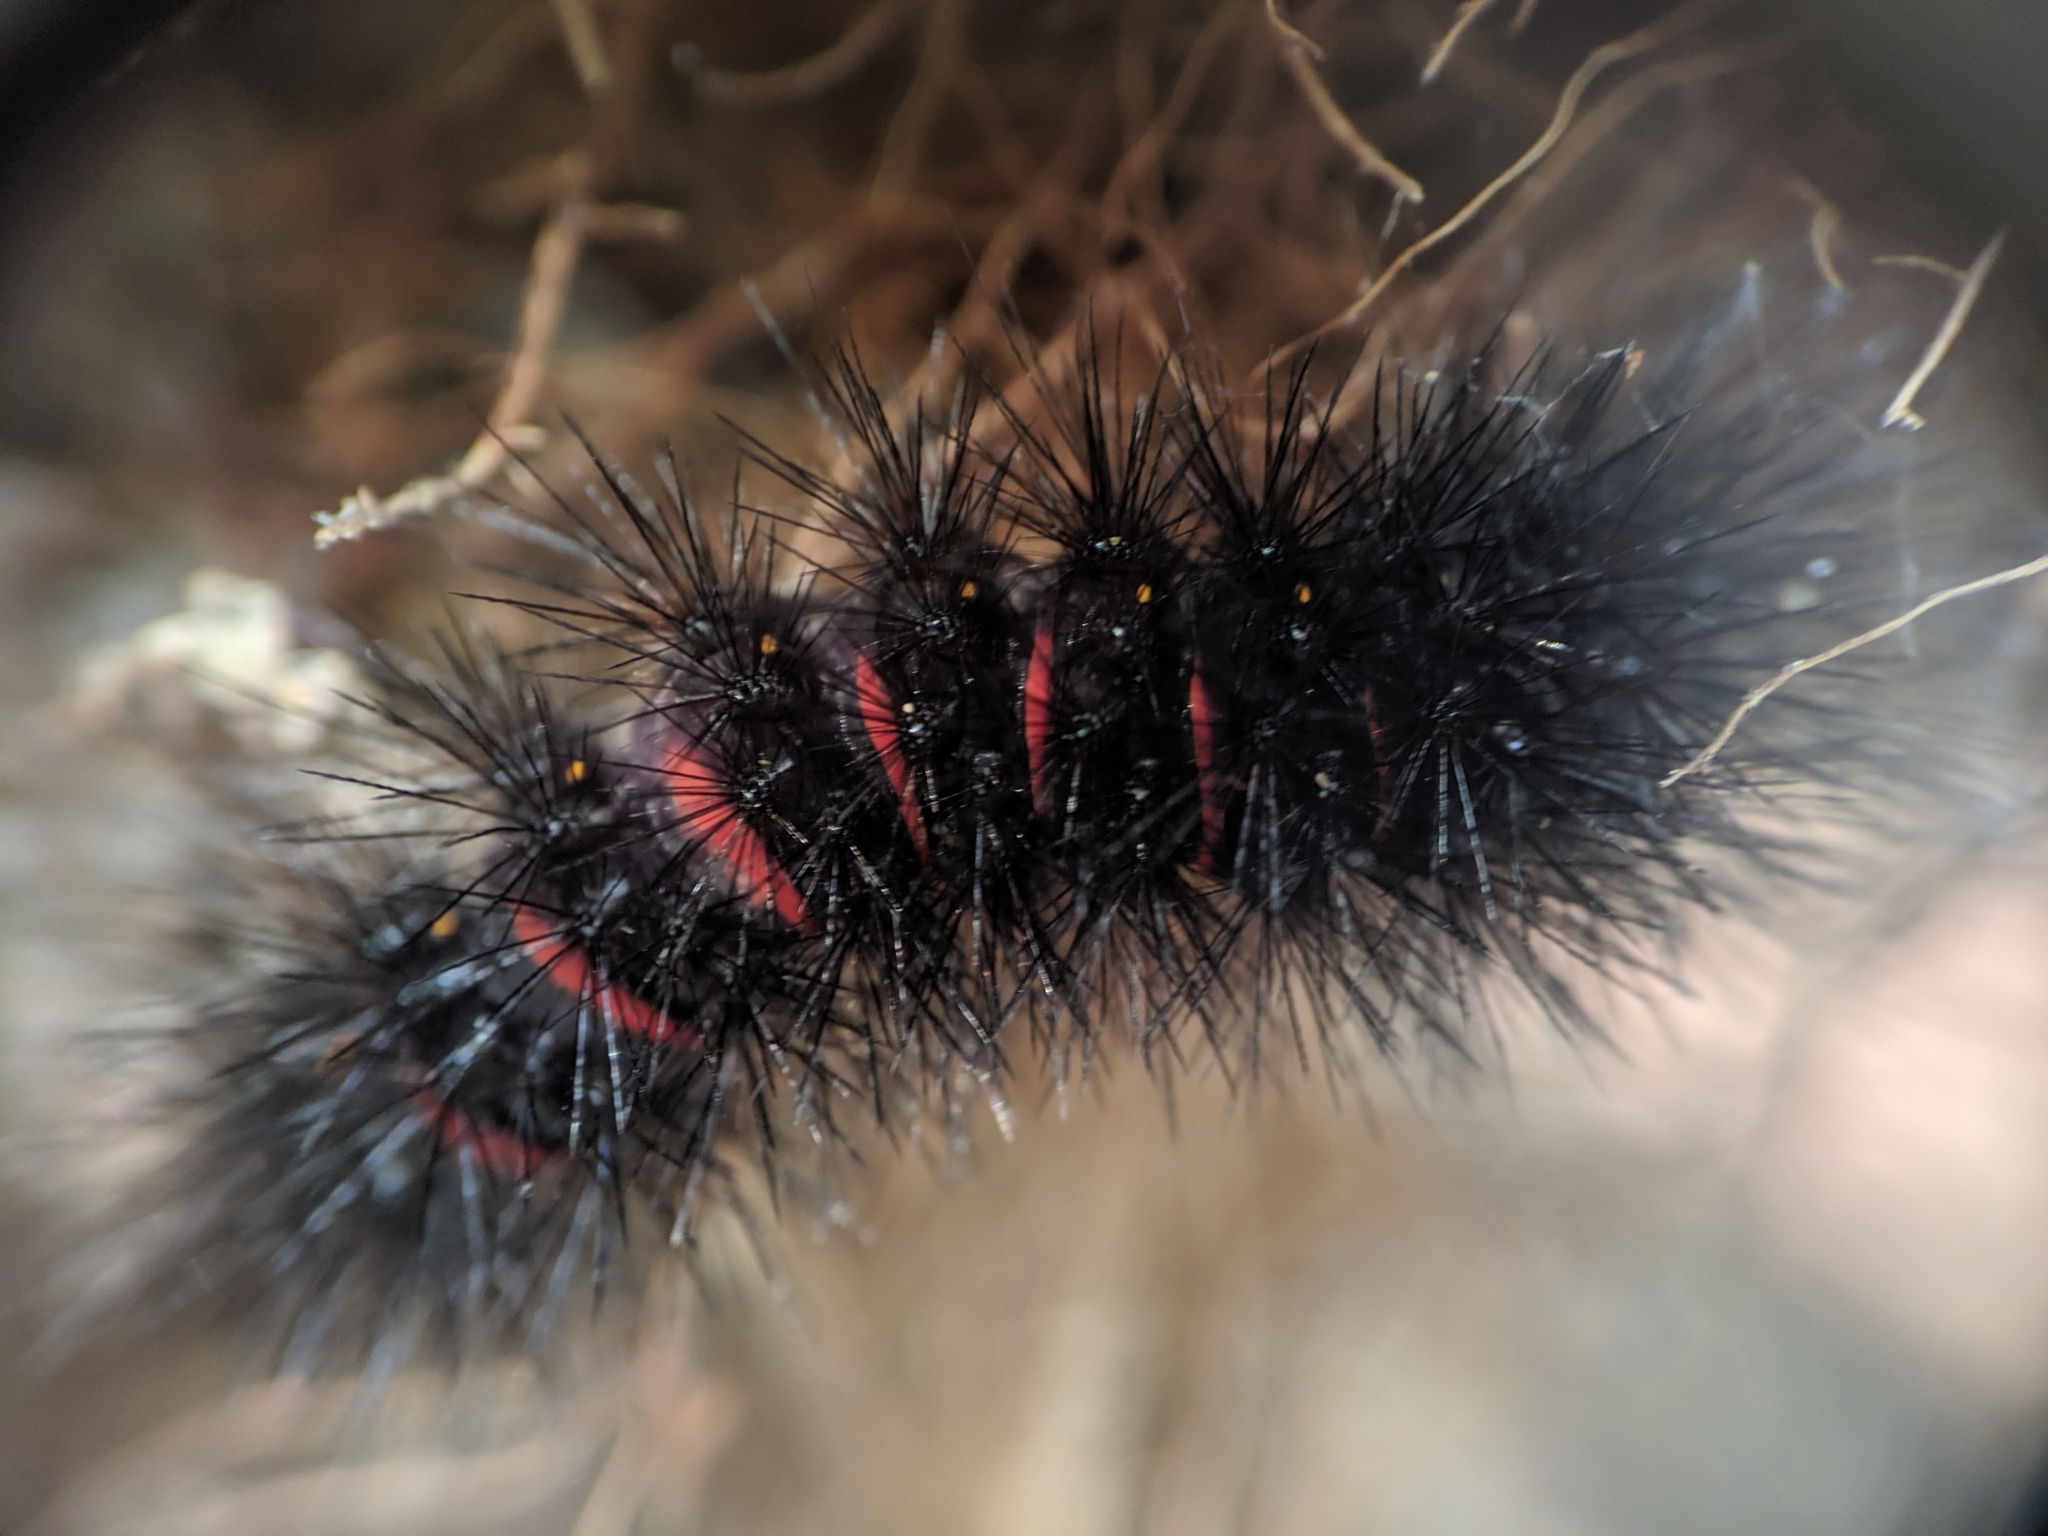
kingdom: Animalia
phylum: Arthropoda
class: Insecta
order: Lepidoptera
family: Erebidae
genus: Hypercompe
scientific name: Hypercompe scribonia
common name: Giant leopard moth
